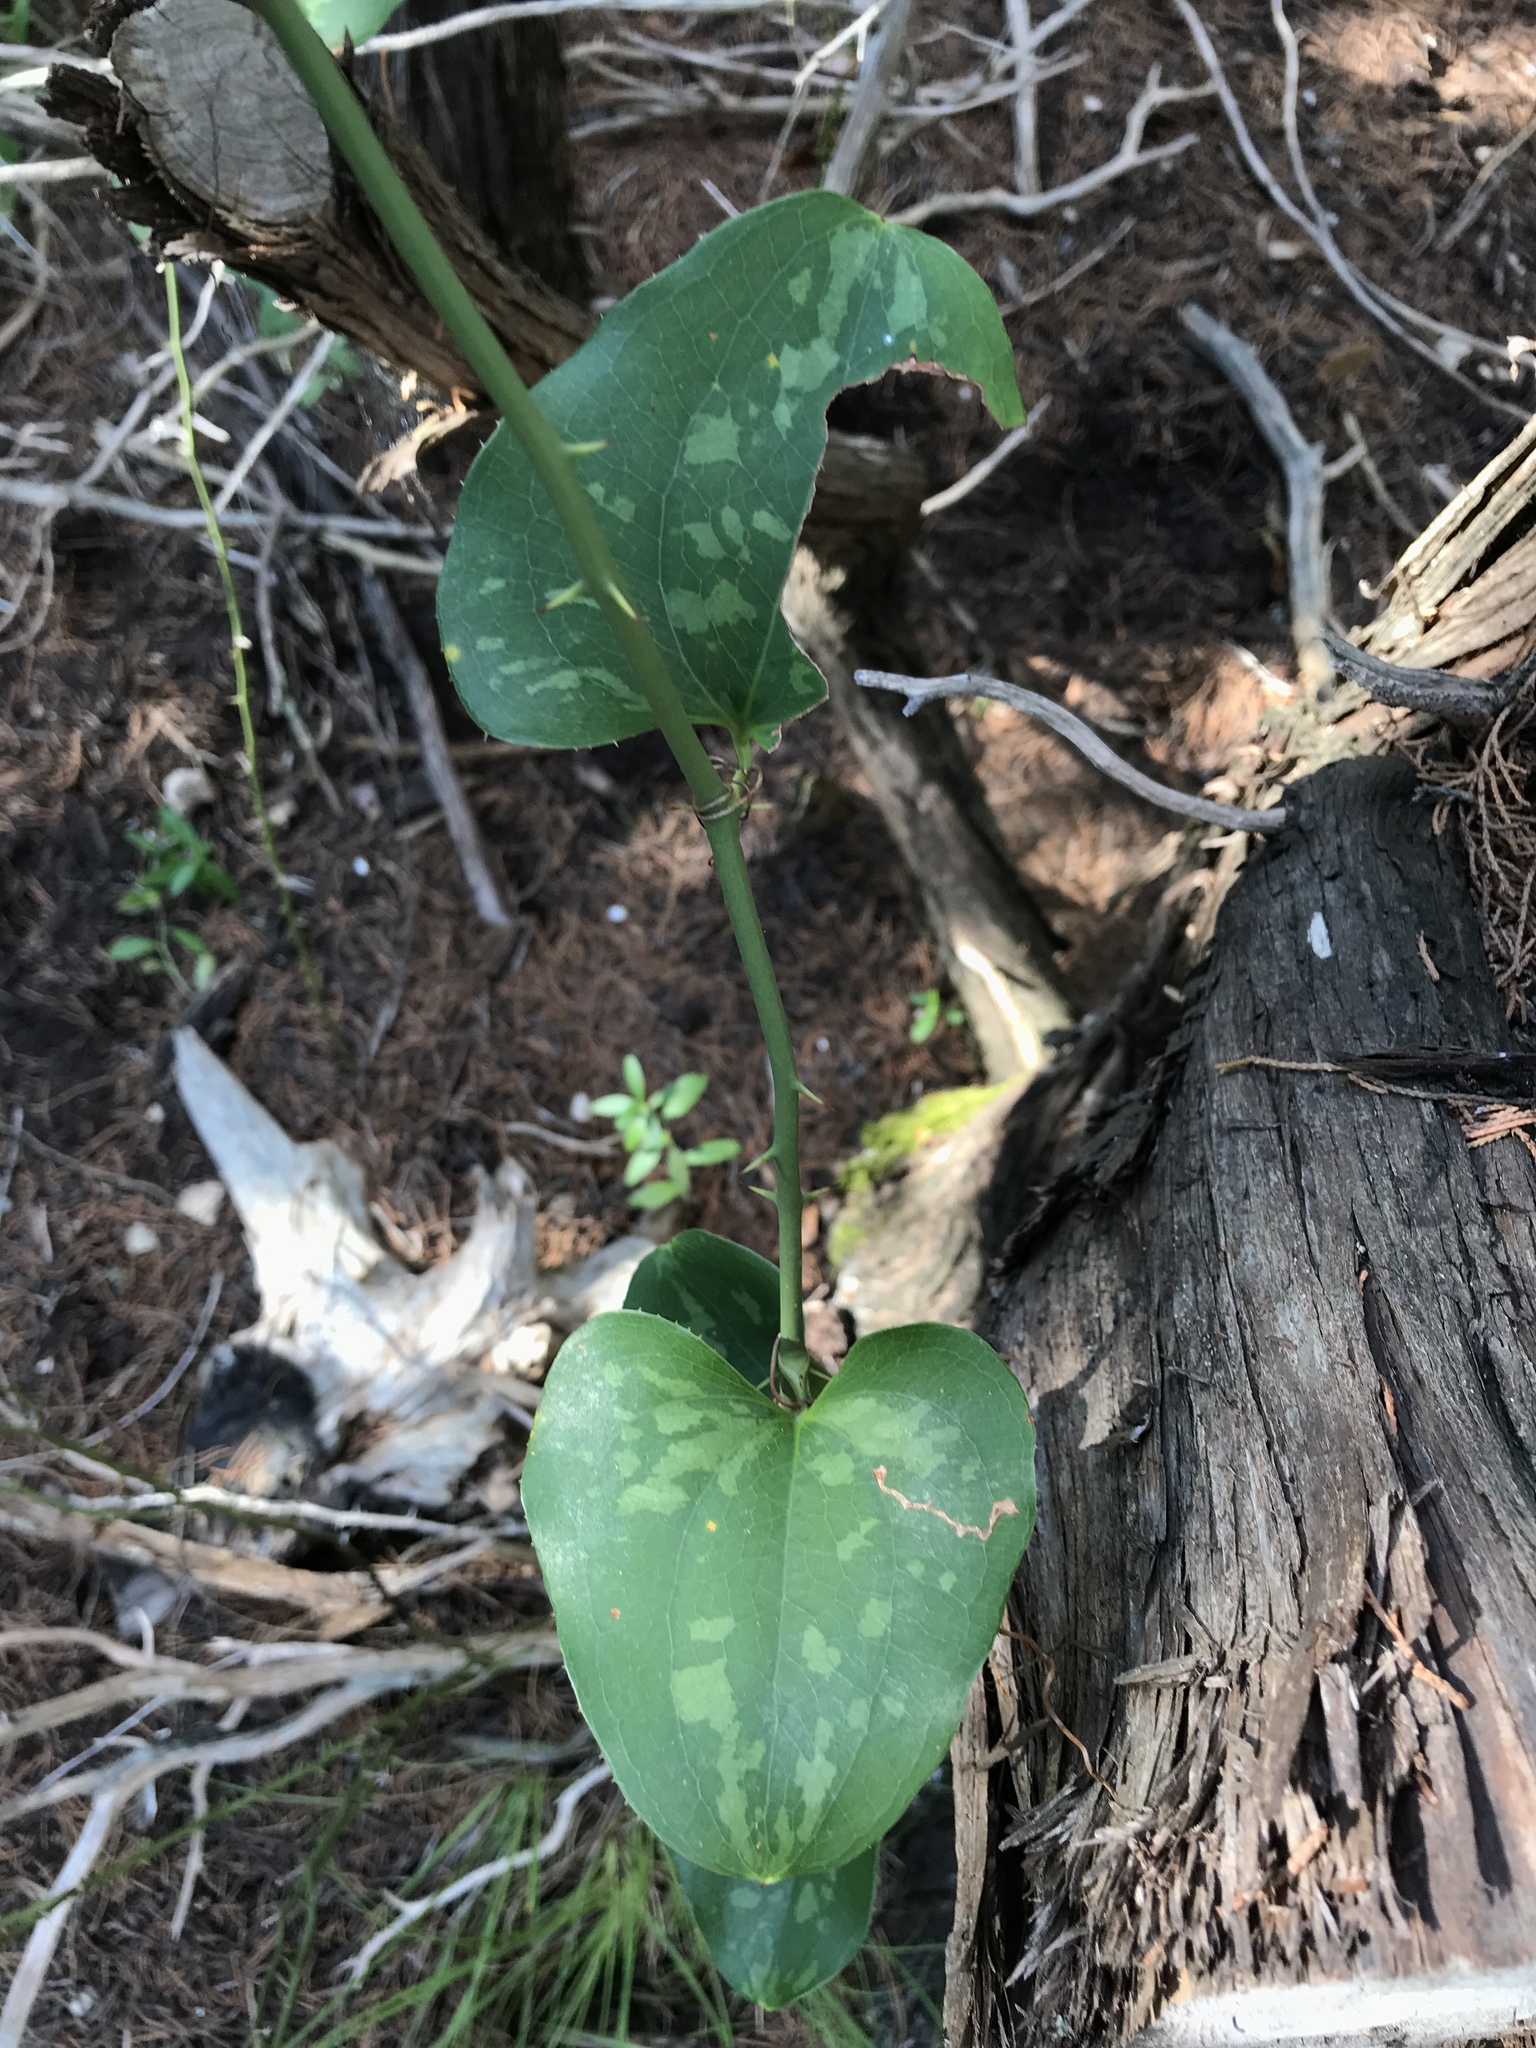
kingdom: Plantae
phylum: Tracheophyta
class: Liliopsida
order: Liliales
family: Smilacaceae
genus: Smilax
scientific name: Smilax bona-nox
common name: Catbrier
